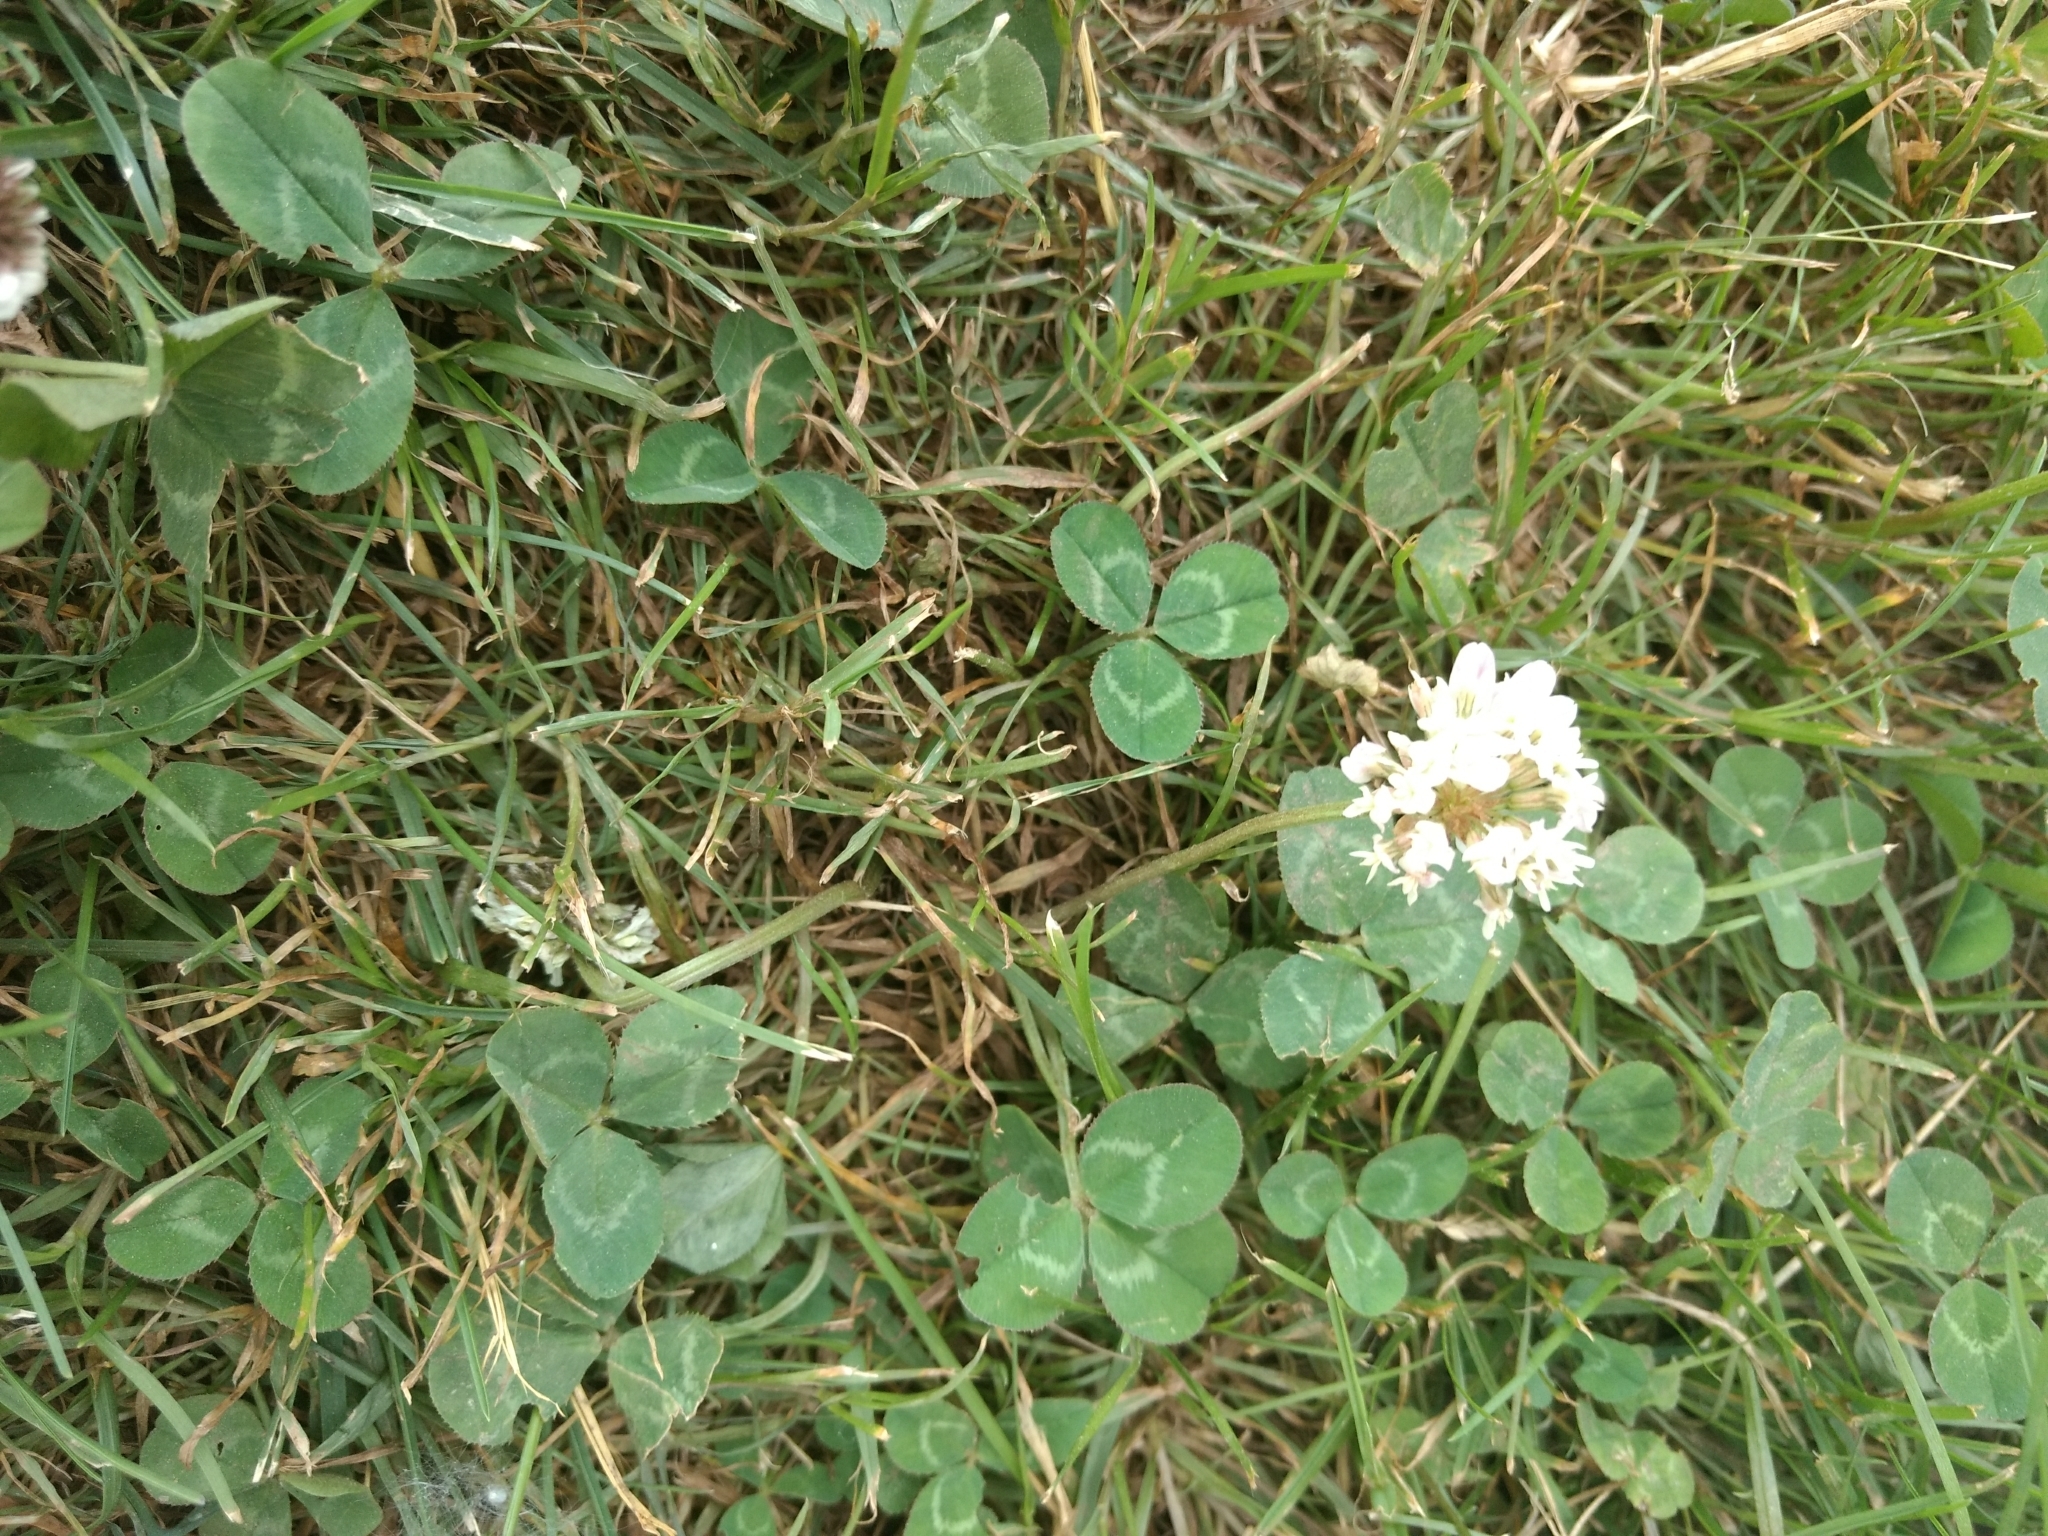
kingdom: Plantae
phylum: Tracheophyta
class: Magnoliopsida
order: Fabales
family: Fabaceae
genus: Trifolium
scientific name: Trifolium repens
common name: White clover
